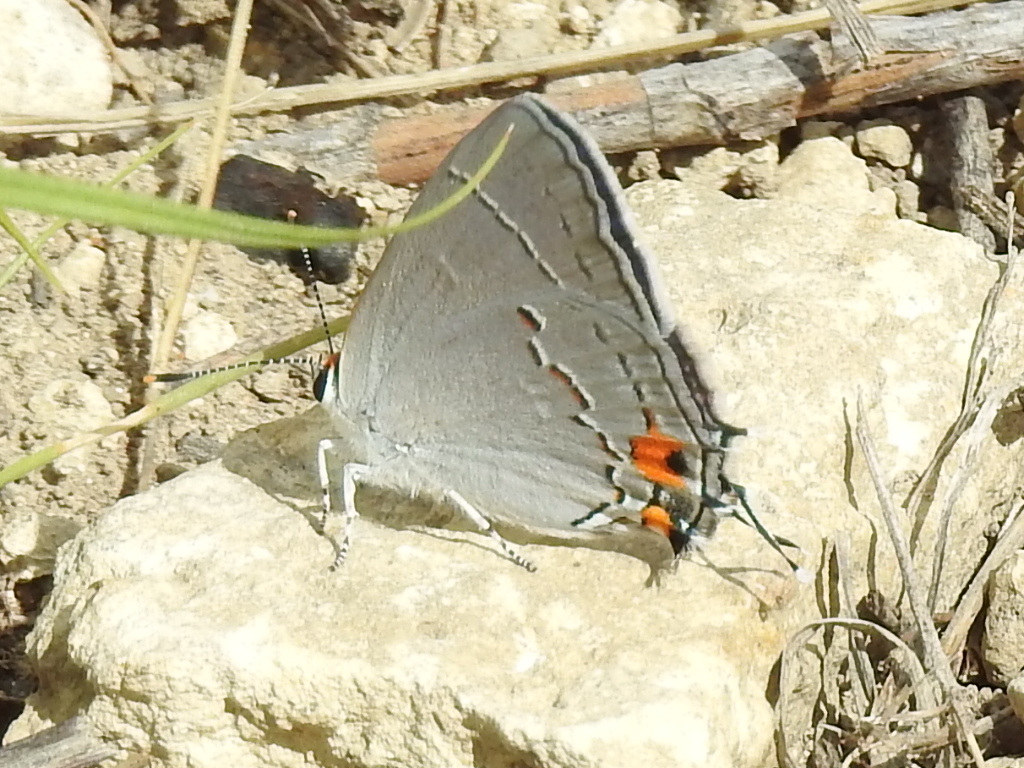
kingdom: Animalia
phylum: Arthropoda
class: Insecta
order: Lepidoptera
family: Lycaenidae
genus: Strymon
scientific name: Strymon melinus
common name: Gray hairstreak
